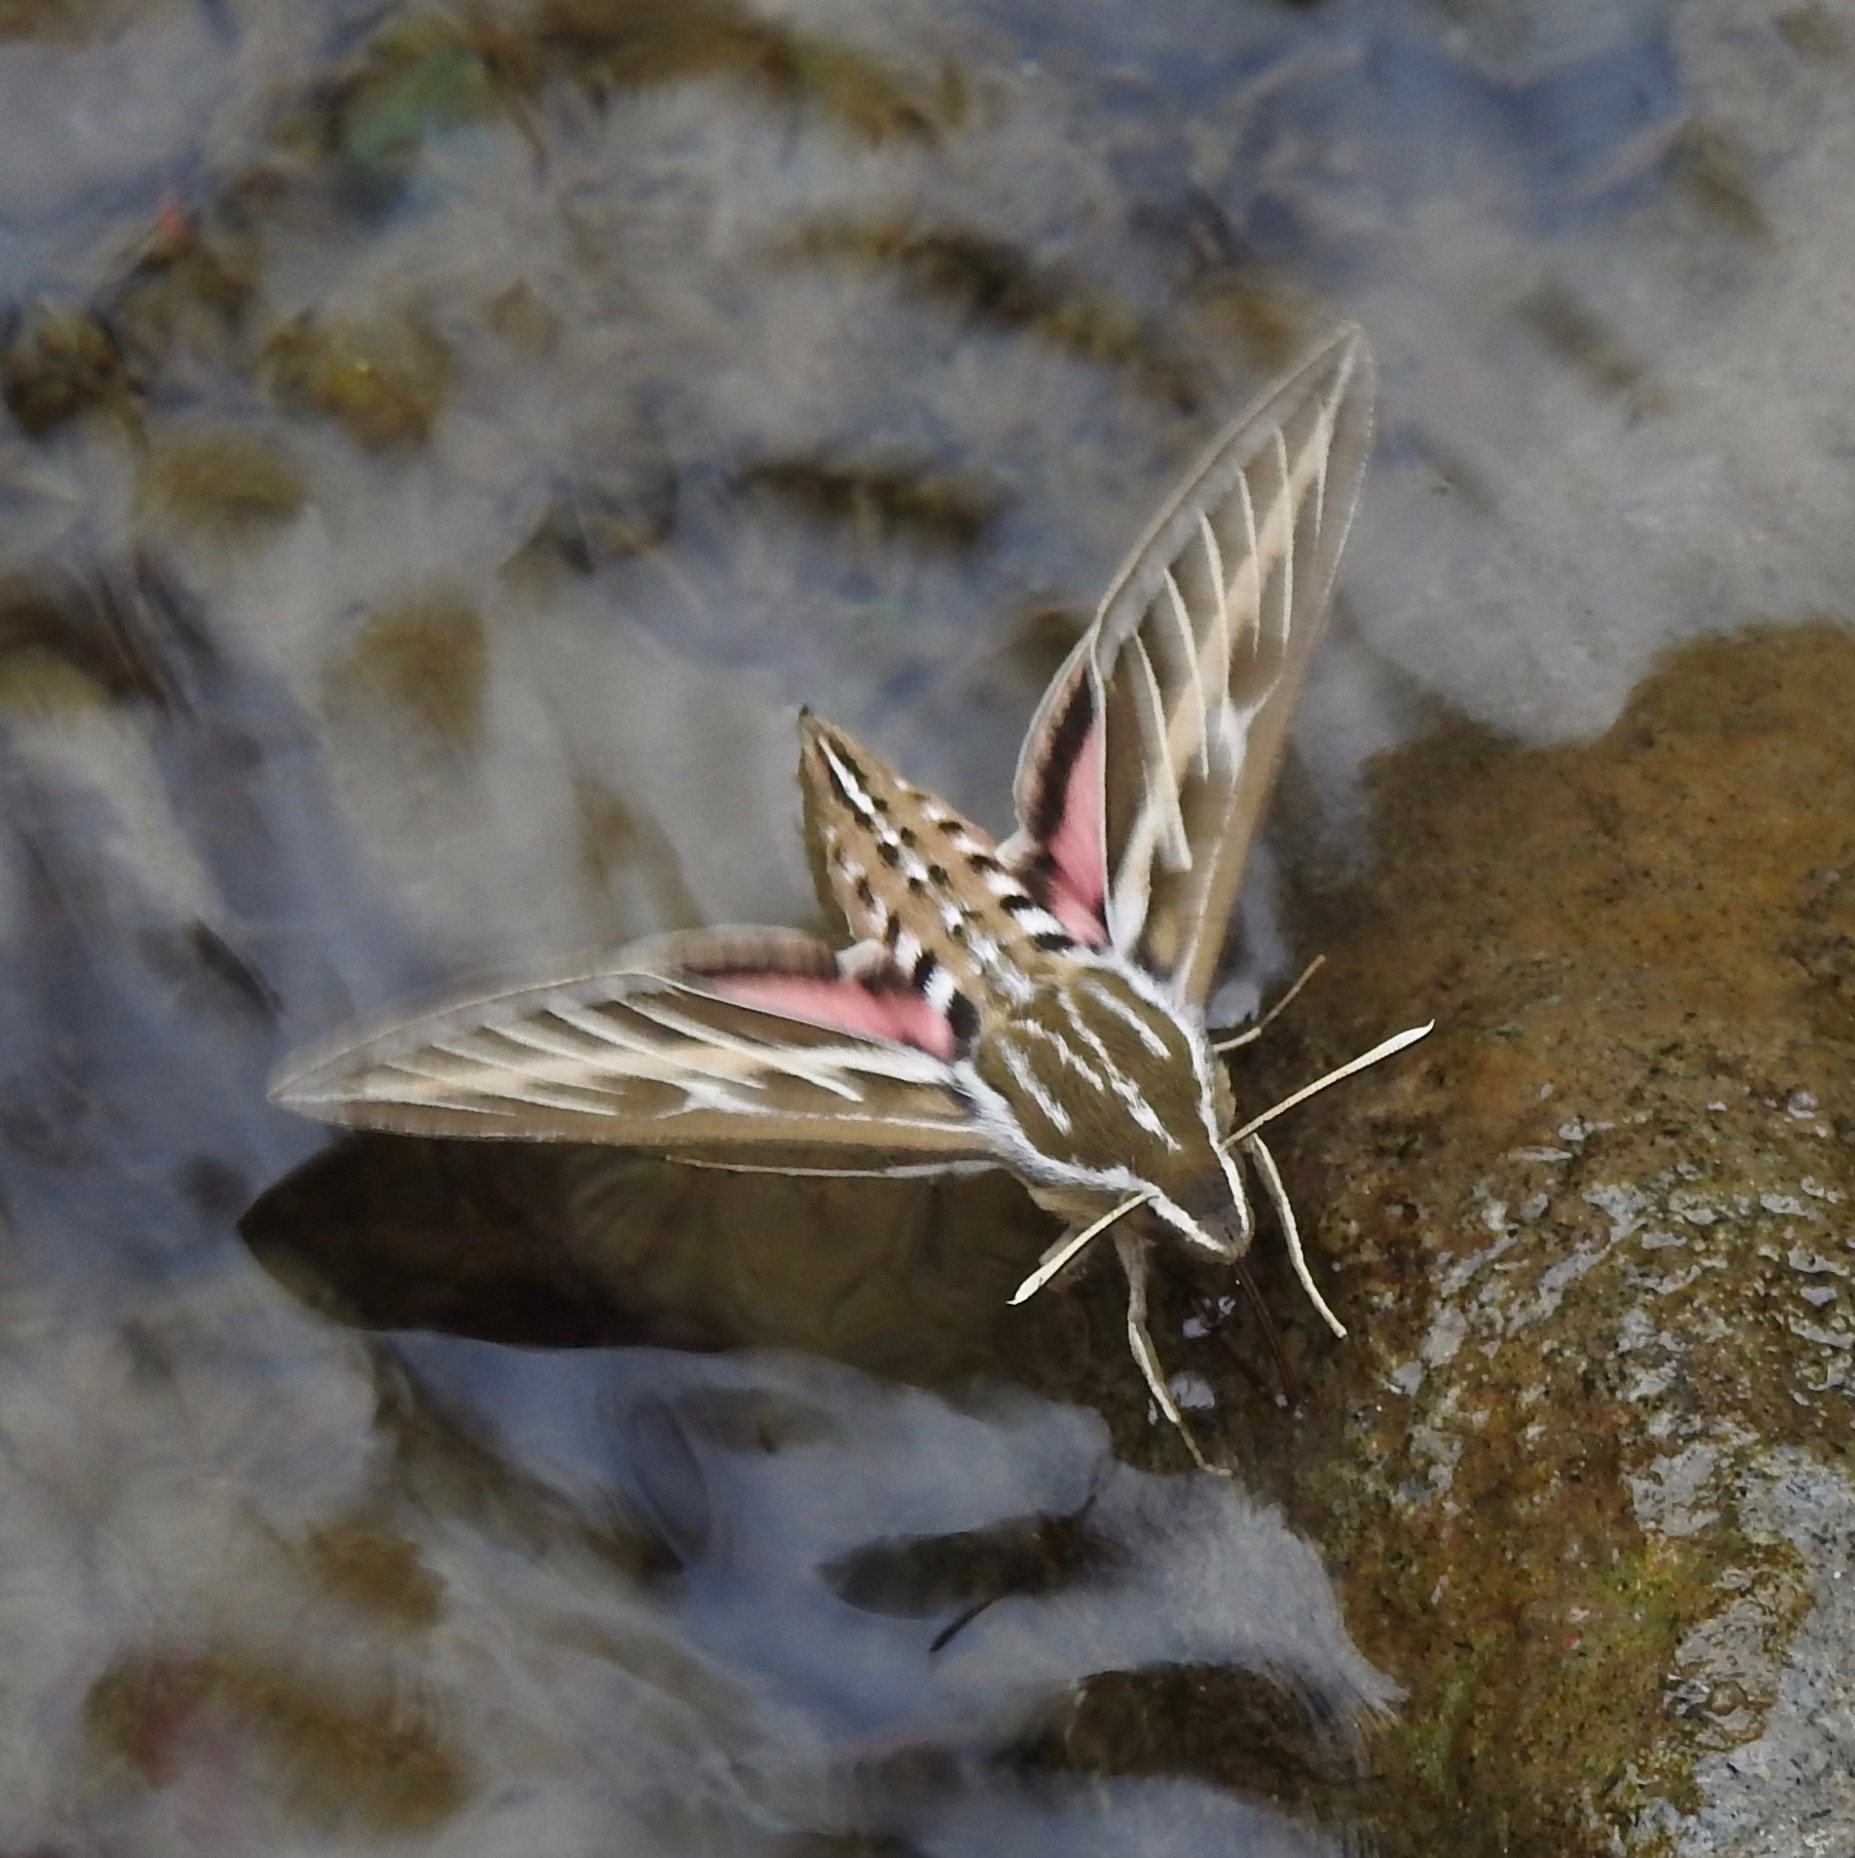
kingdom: Animalia
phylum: Arthropoda
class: Insecta
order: Lepidoptera
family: Sphingidae
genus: Hyles
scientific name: Hyles lineata
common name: White-lined sphinx
